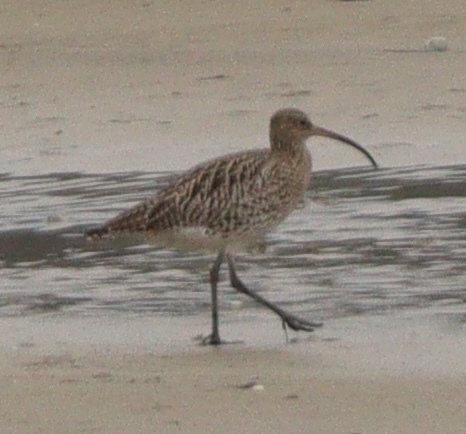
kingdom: Animalia
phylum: Chordata
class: Aves
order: Charadriiformes
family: Scolopacidae
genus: Numenius
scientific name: Numenius arquata
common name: Eurasian curlew
